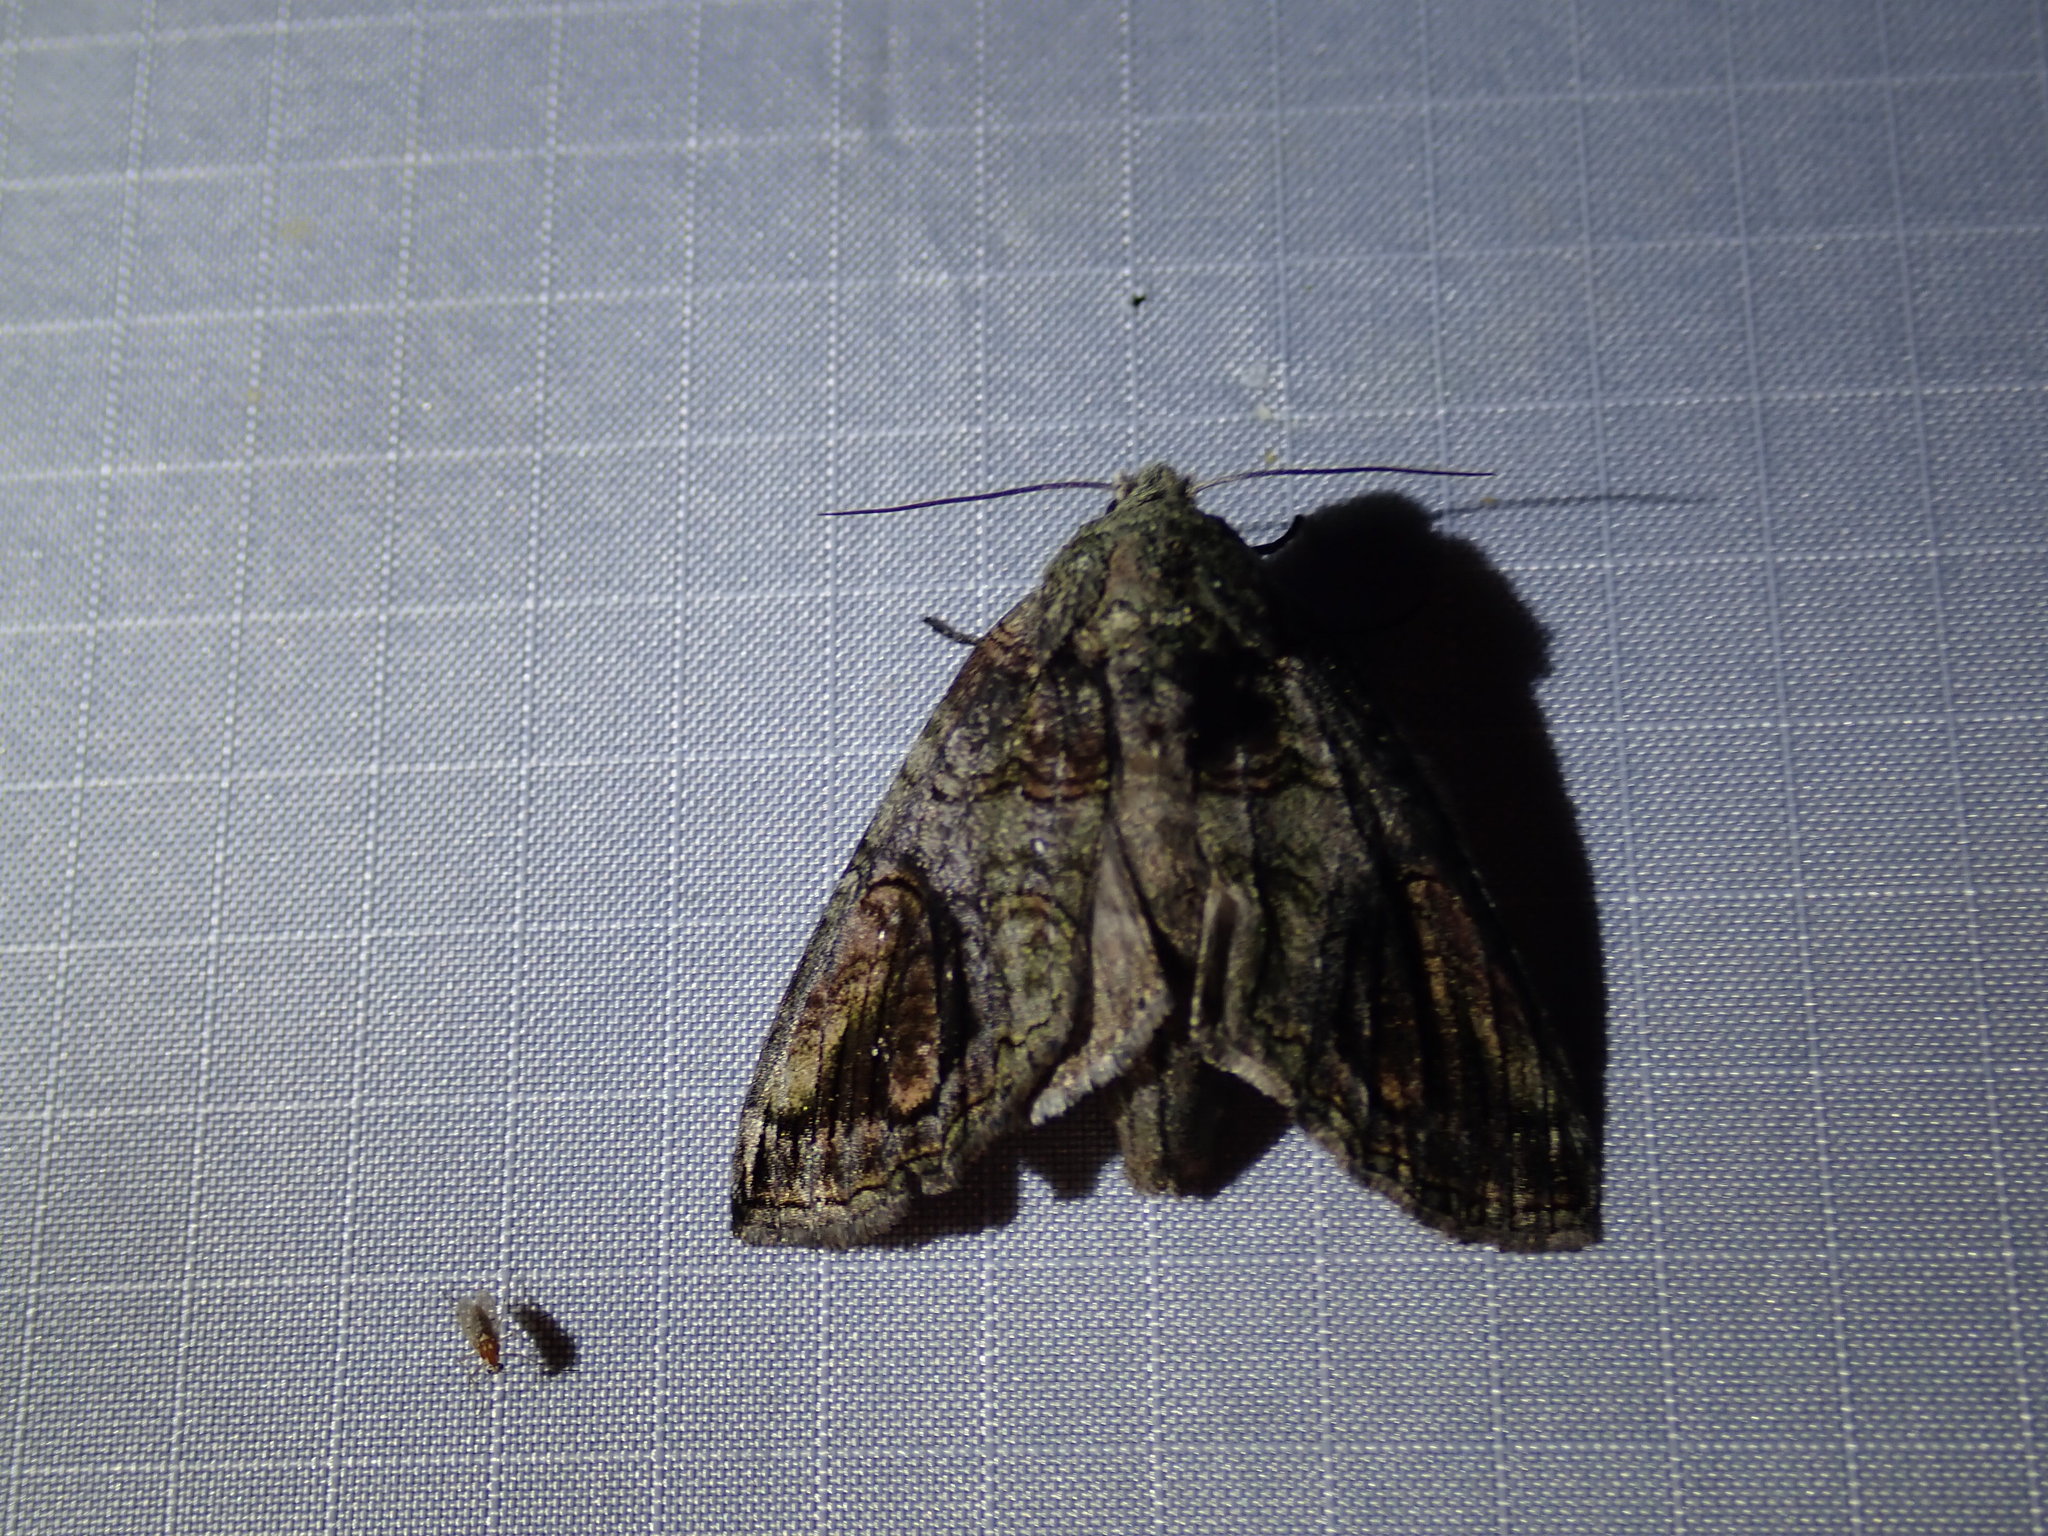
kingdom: Animalia
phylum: Arthropoda
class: Insecta
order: Lepidoptera
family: Notodontidae
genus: Heterocampa
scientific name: Heterocampa obliqua
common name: Oblique heterocampa
